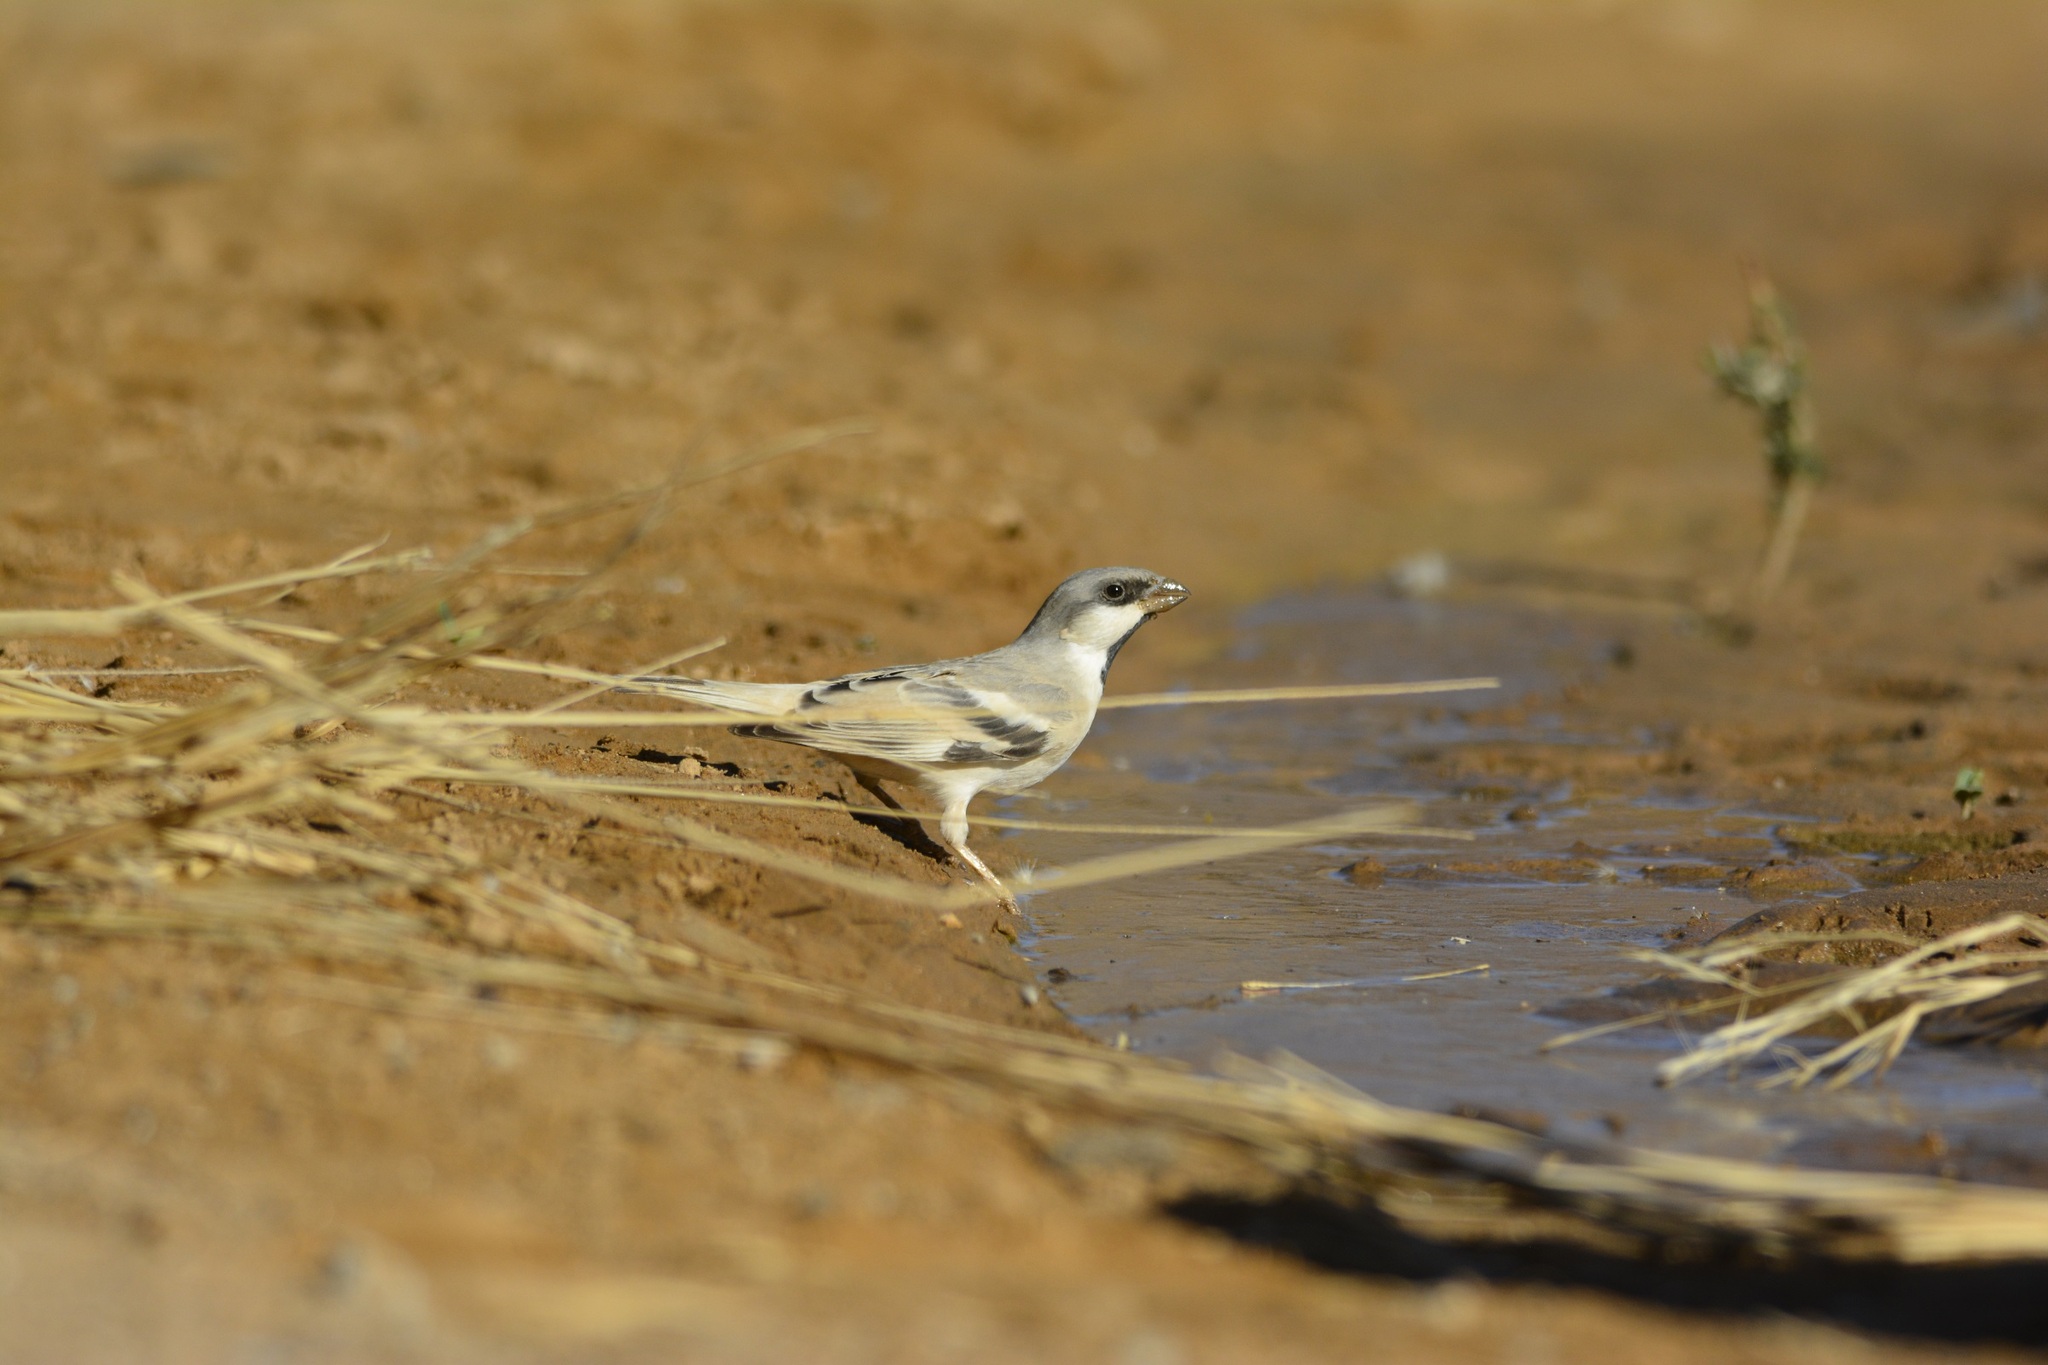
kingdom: Animalia
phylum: Chordata
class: Aves
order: Passeriformes
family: Passeridae
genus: Passer
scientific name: Passer simplex
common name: Desert sparrow
